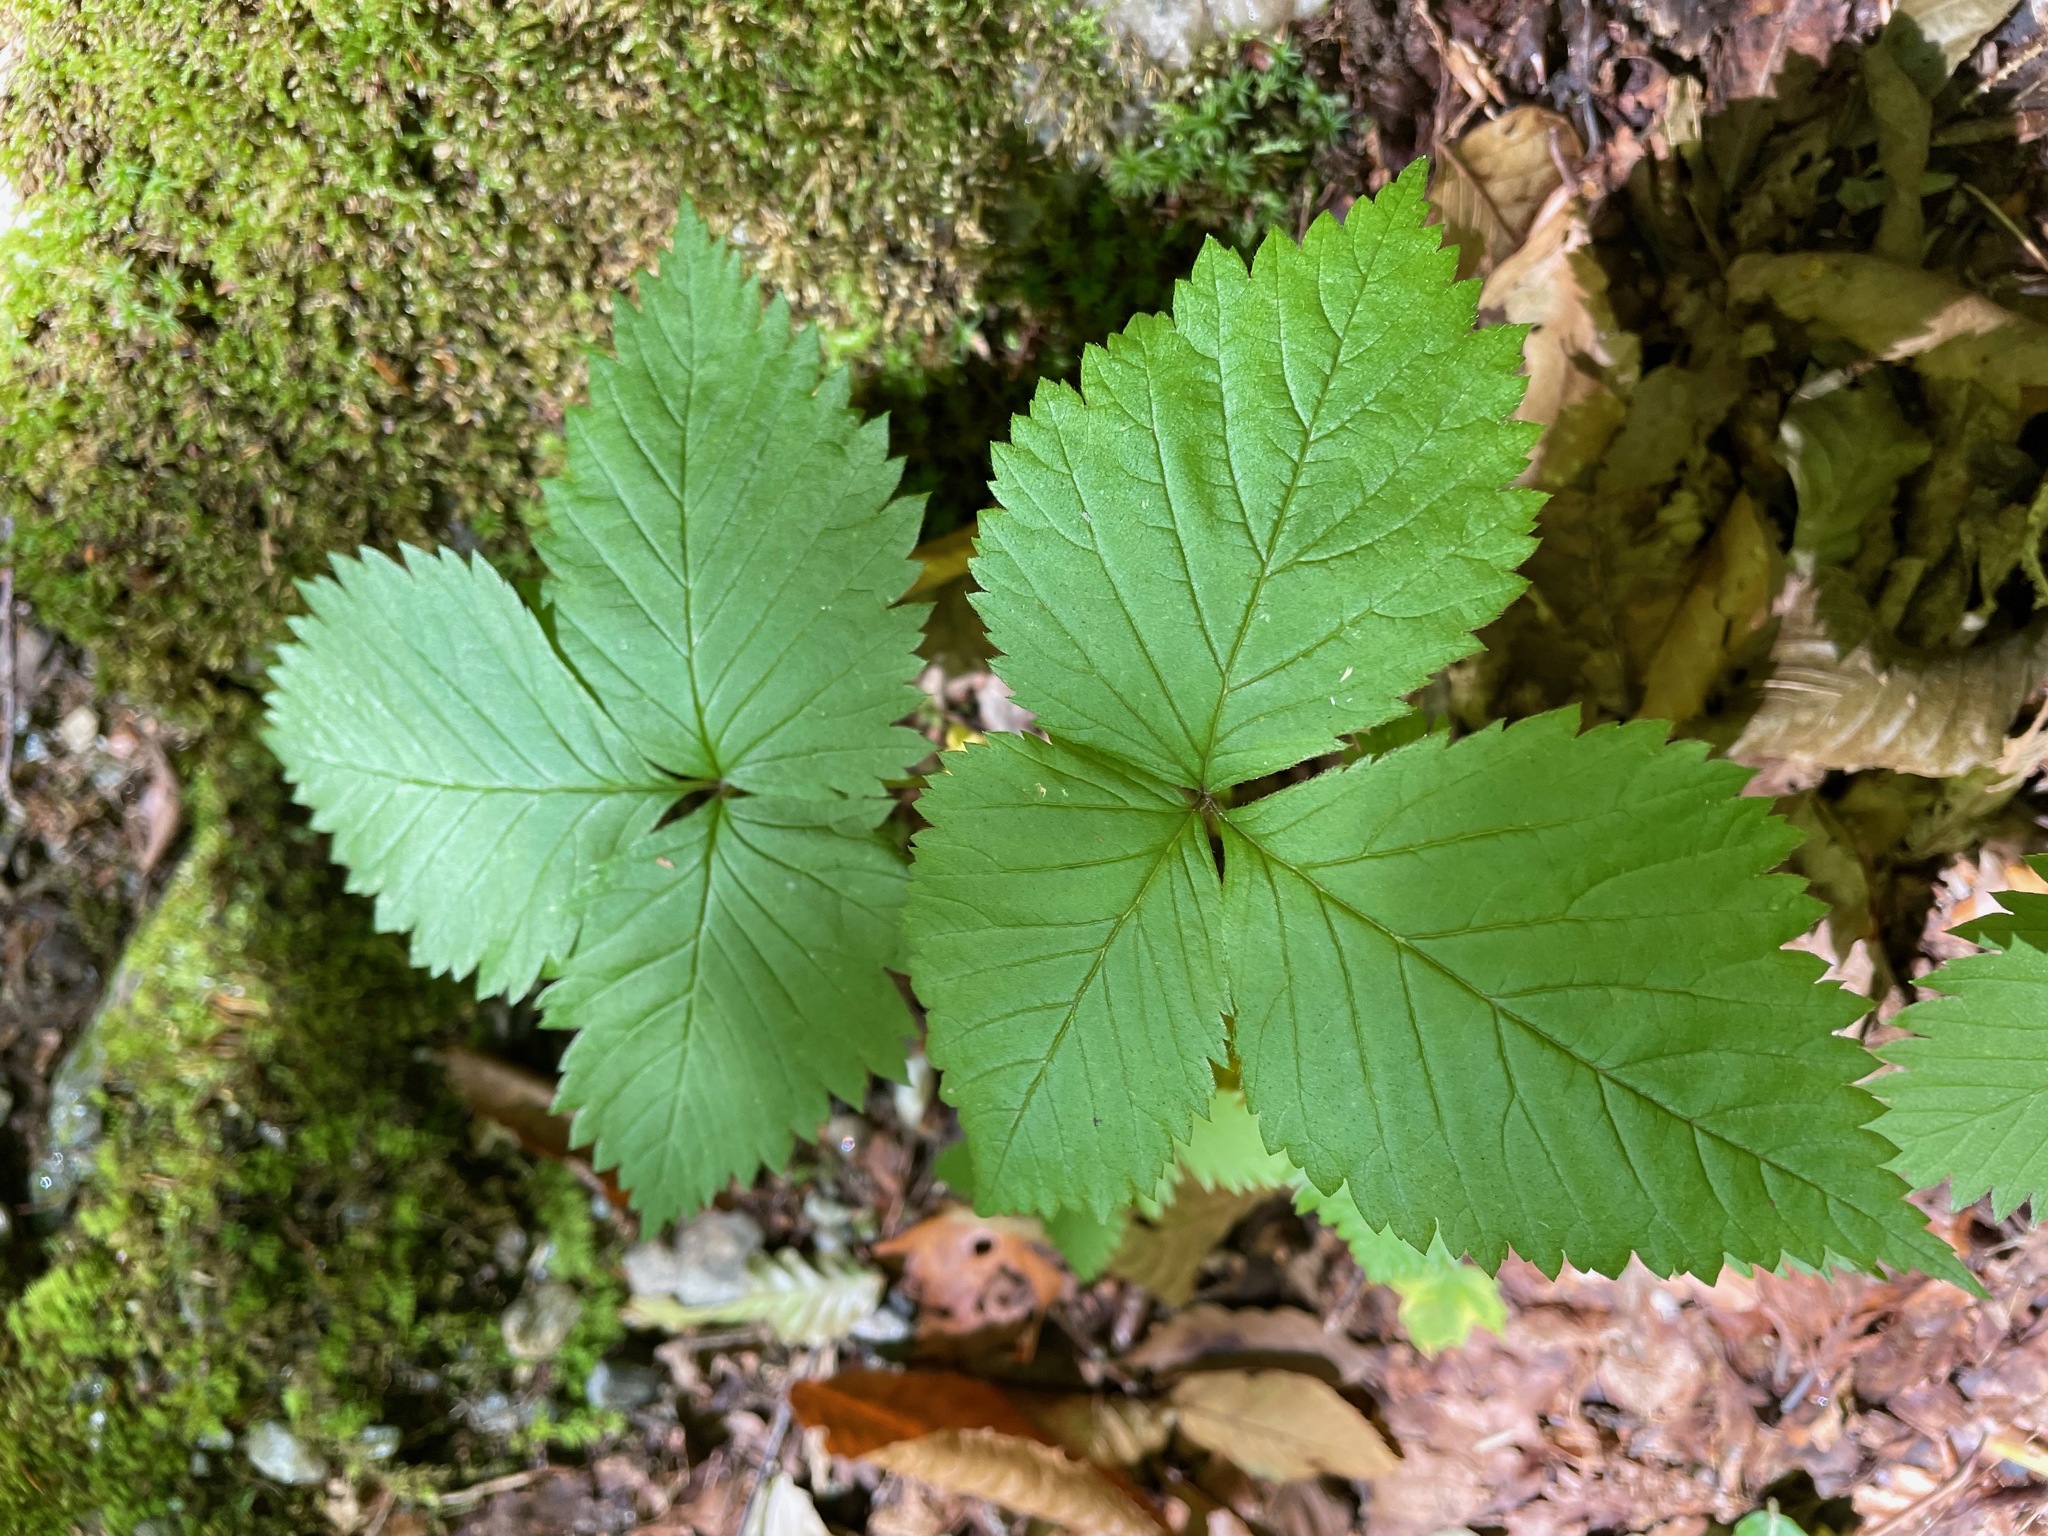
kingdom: Plantae
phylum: Tracheophyta
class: Magnoliopsida
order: Rosales
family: Rosaceae
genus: Rubus
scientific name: Rubus pubescens
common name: Dwarf raspberry
